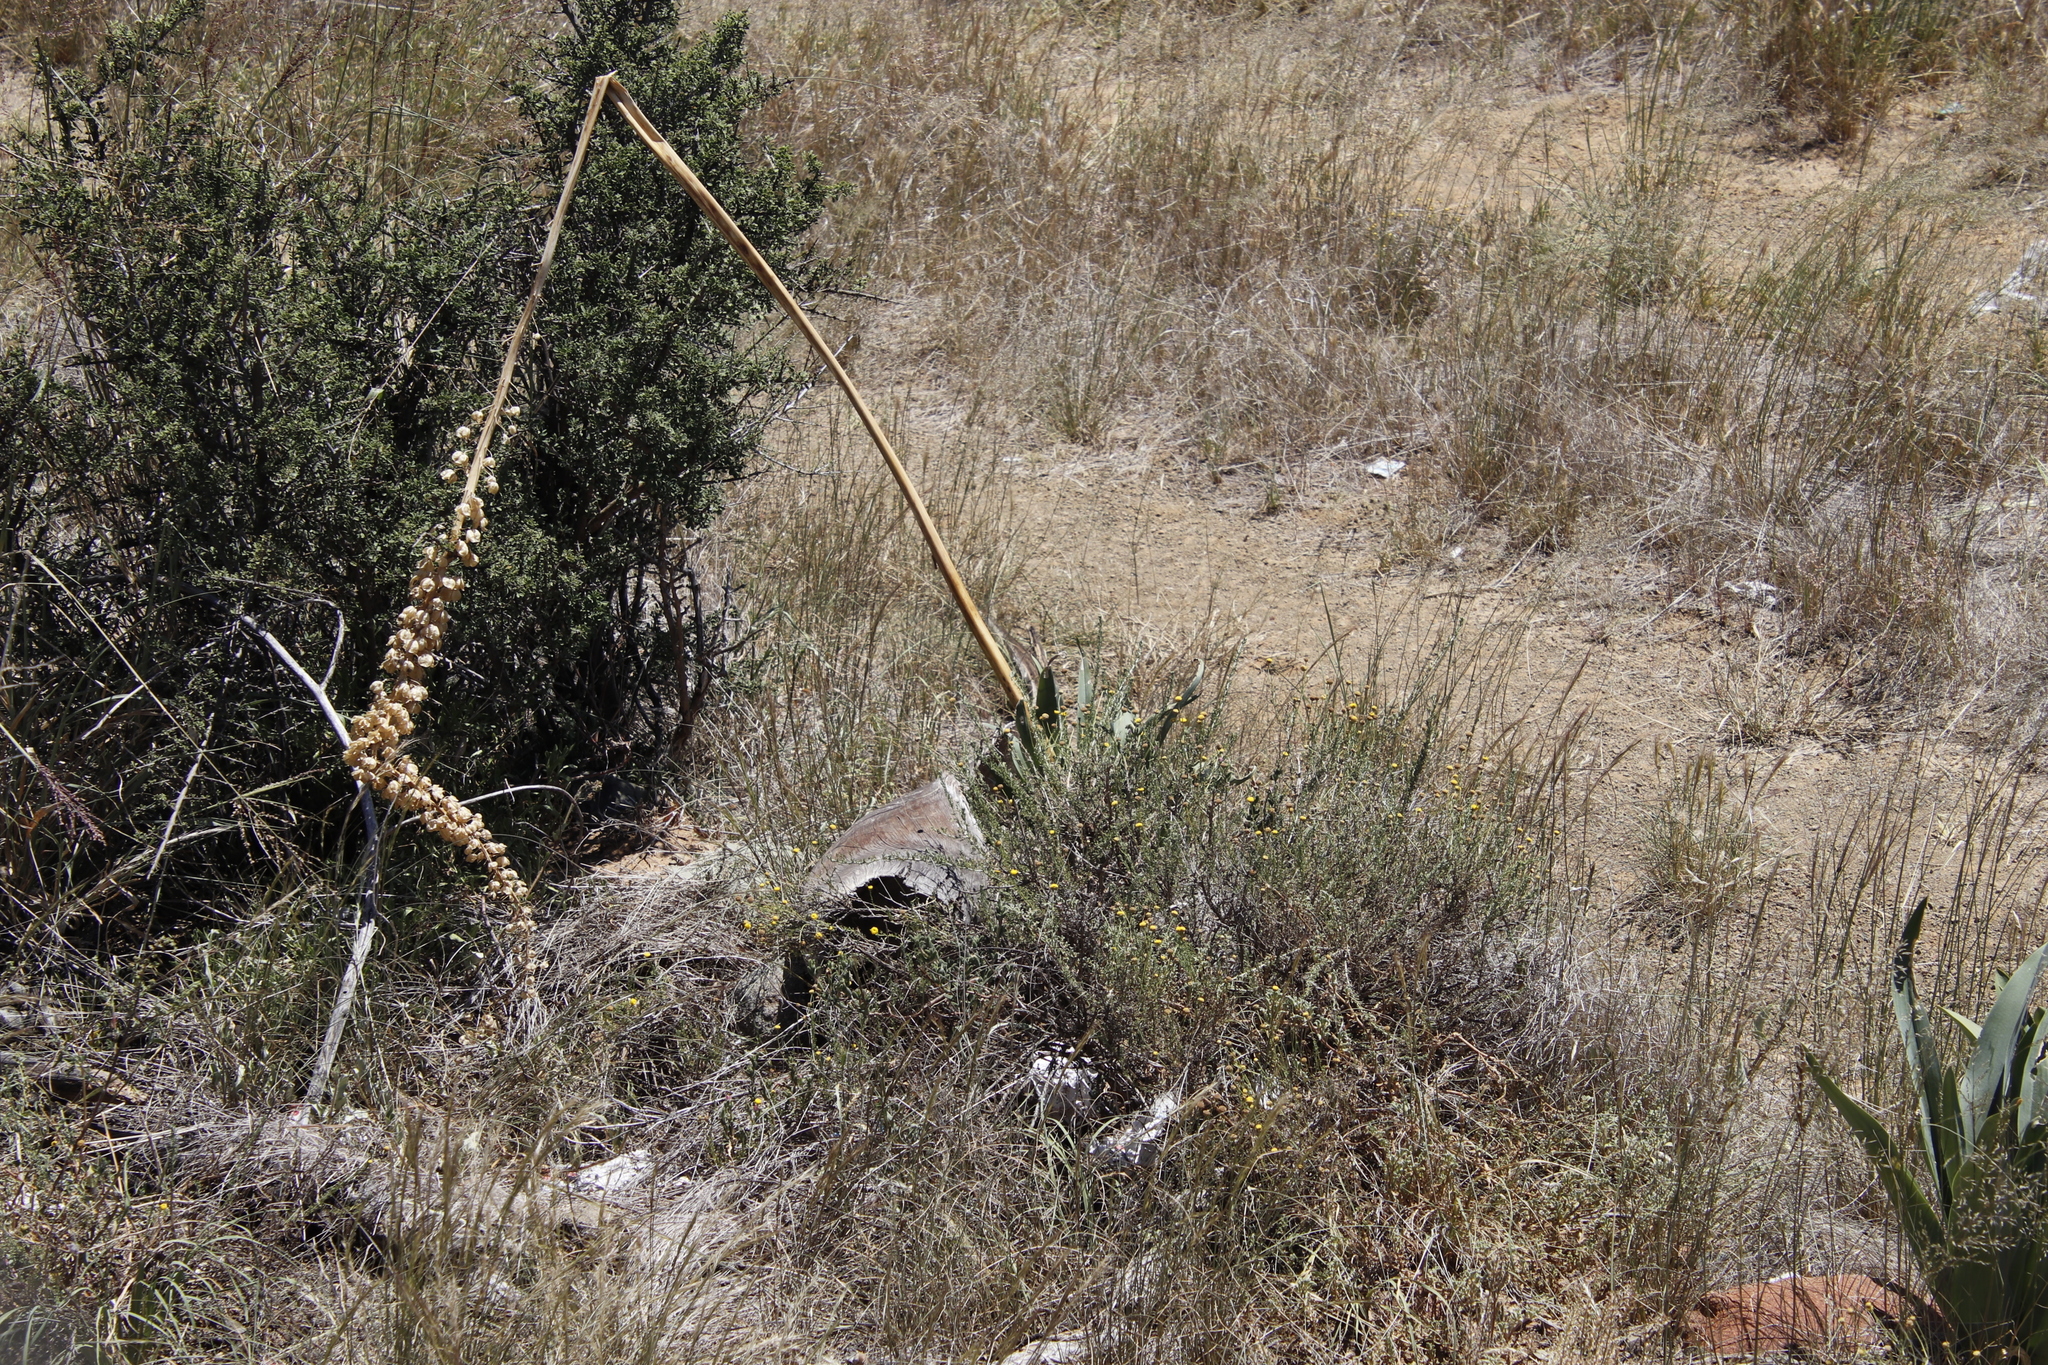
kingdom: Plantae
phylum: Tracheophyta
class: Liliopsida
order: Asparagales
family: Asparagaceae
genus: Drimia
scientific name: Drimia altissima
